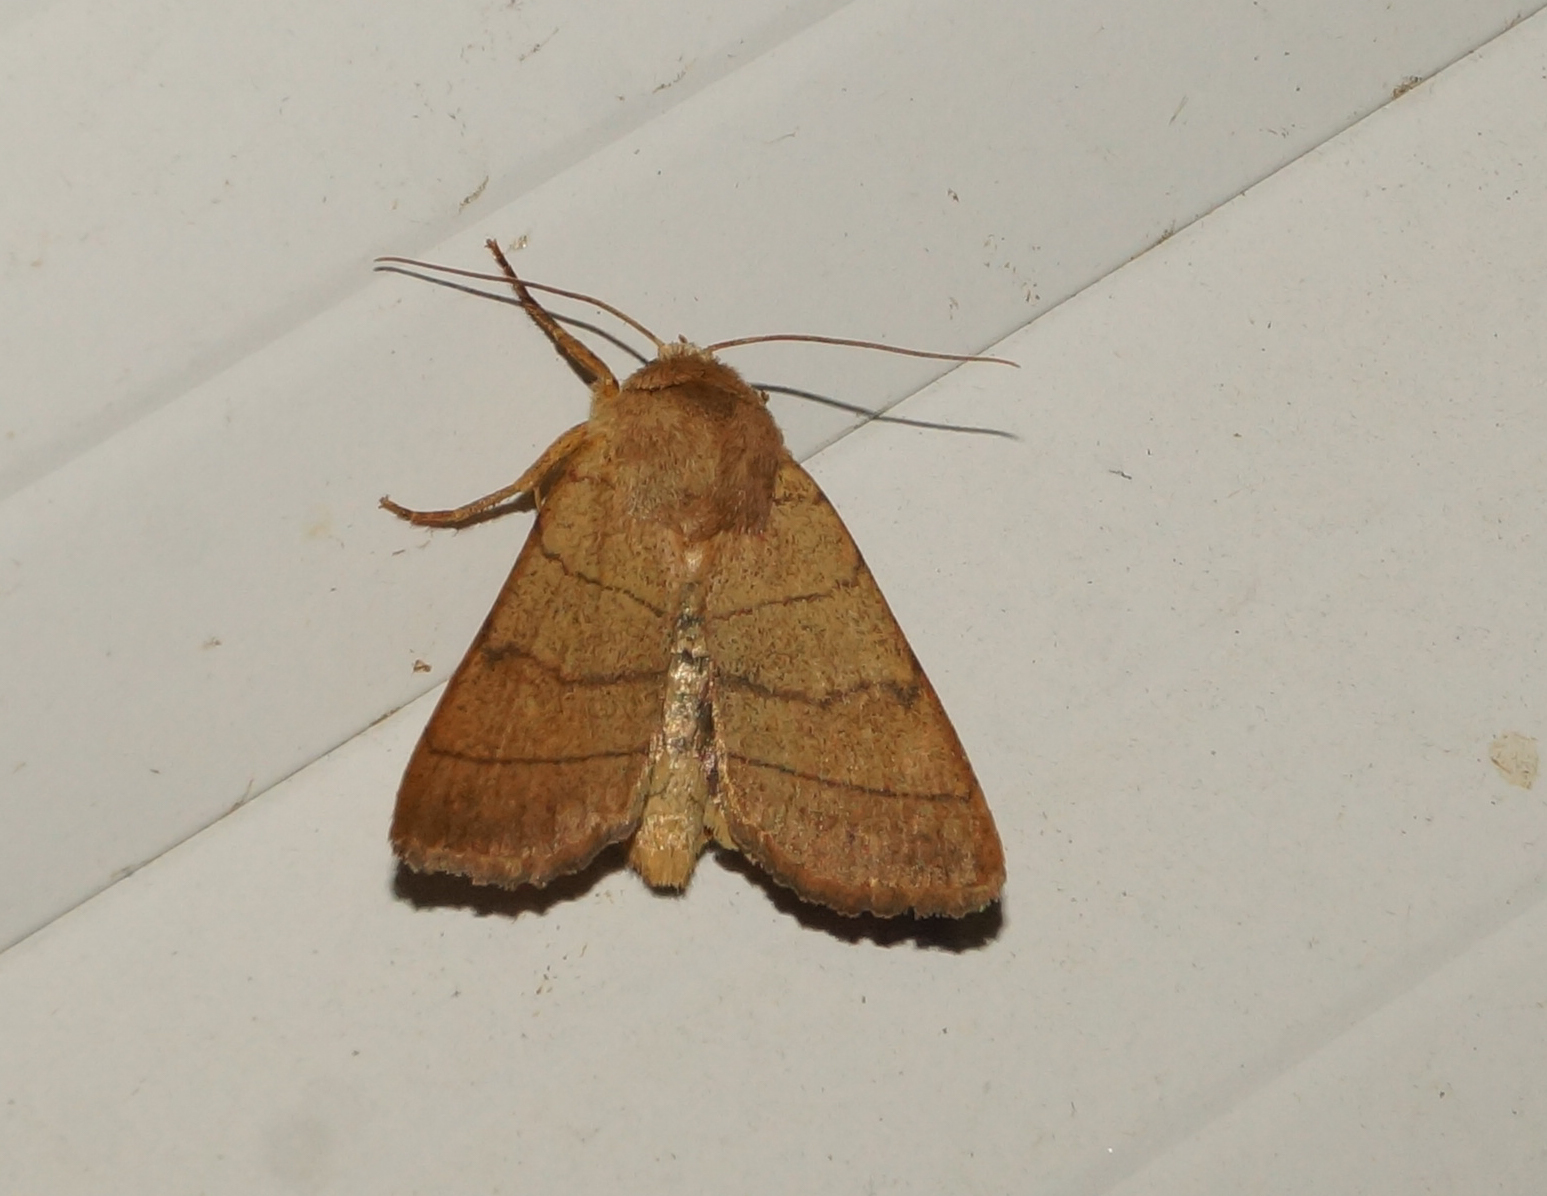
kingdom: Animalia
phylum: Arthropoda
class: Insecta
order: Lepidoptera
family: Noctuidae
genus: Charanyca
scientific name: Charanyca trigrammica
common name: Treble lines
